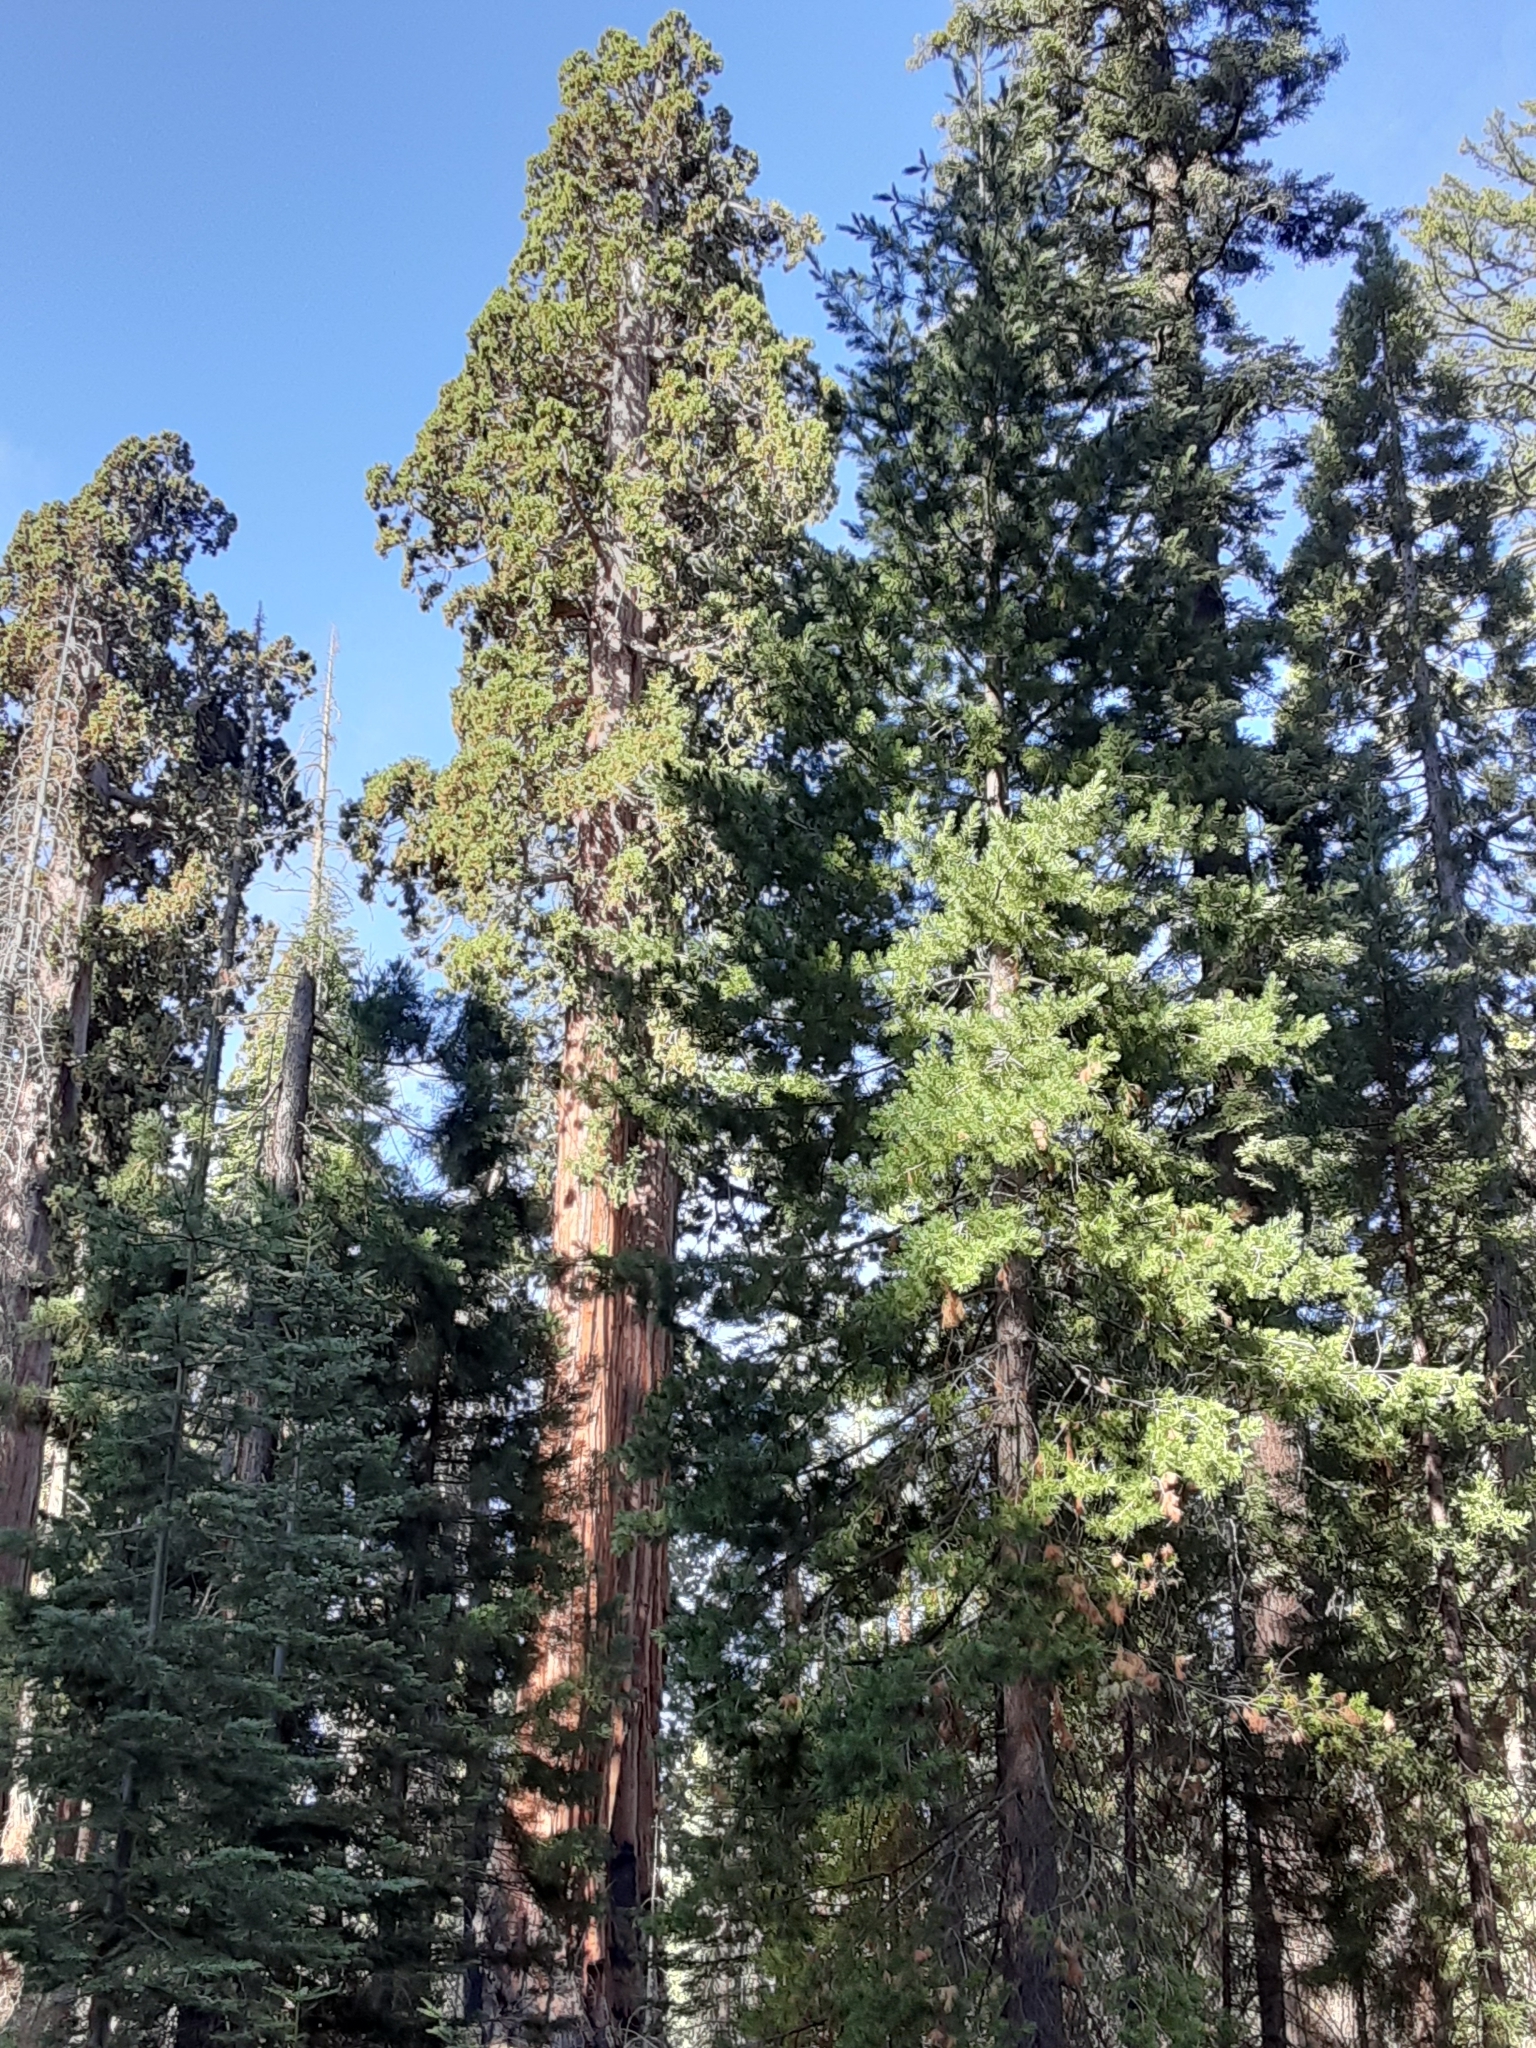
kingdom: Plantae
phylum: Tracheophyta
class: Pinopsida
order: Pinales
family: Cupressaceae
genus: Sequoiadendron
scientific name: Sequoiadendron giganteum
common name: Wellingtonia
